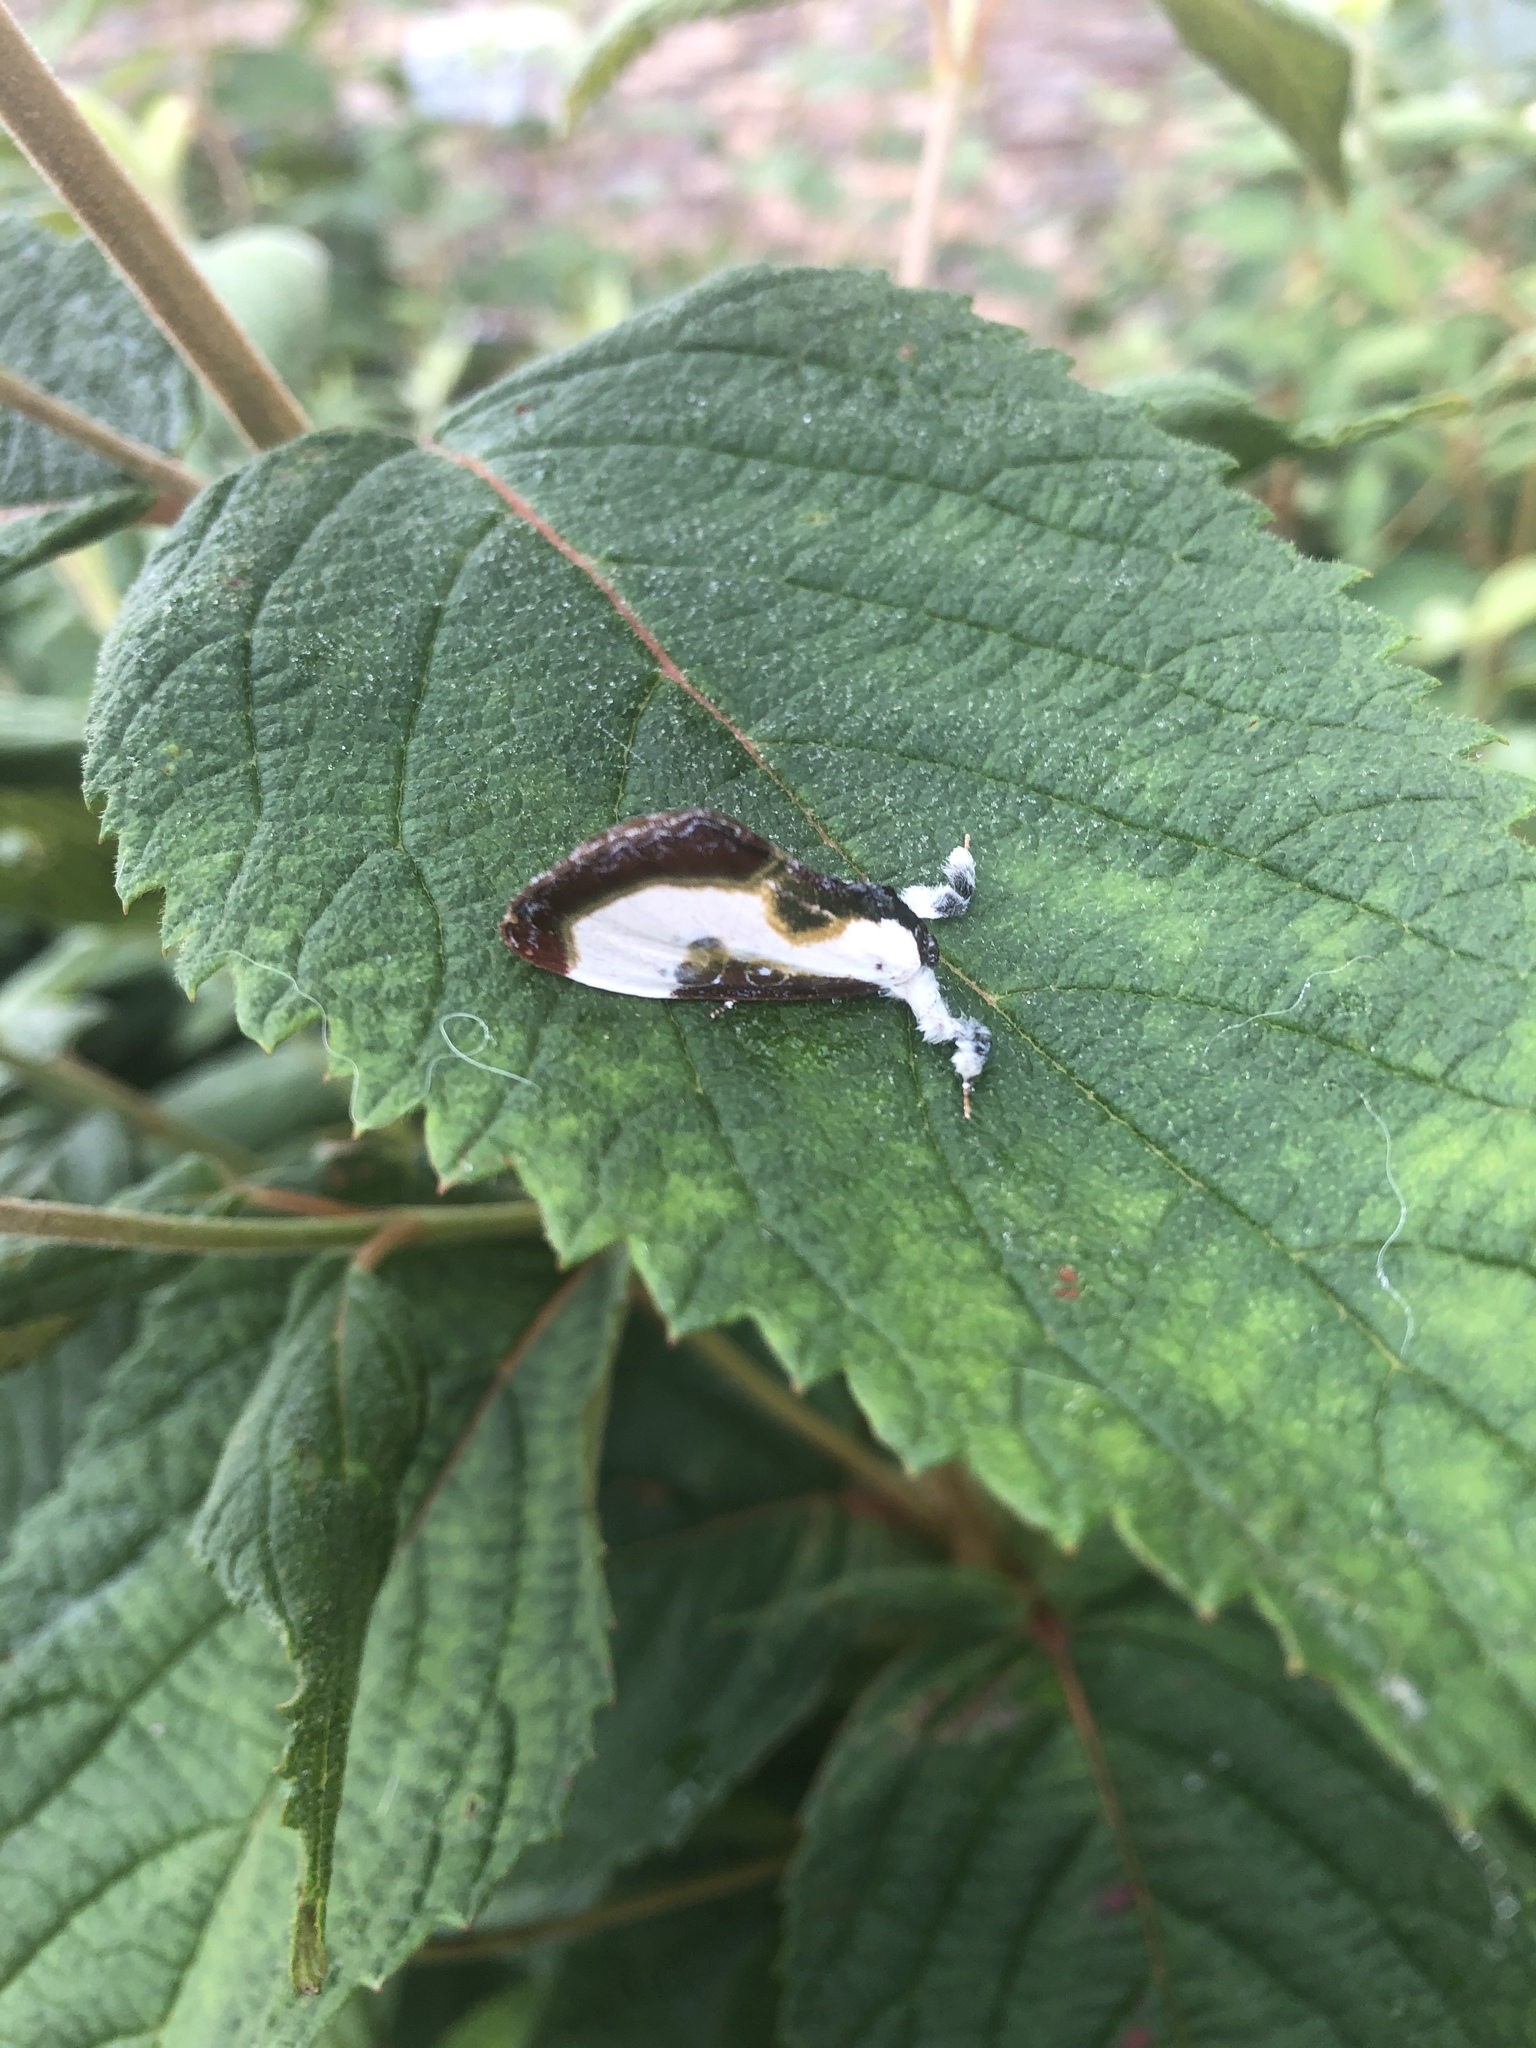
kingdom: Animalia
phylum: Arthropoda
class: Insecta
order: Lepidoptera
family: Noctuidae
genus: Eudryas
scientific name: Eudryas grata
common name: Beautiful wood-nymph
